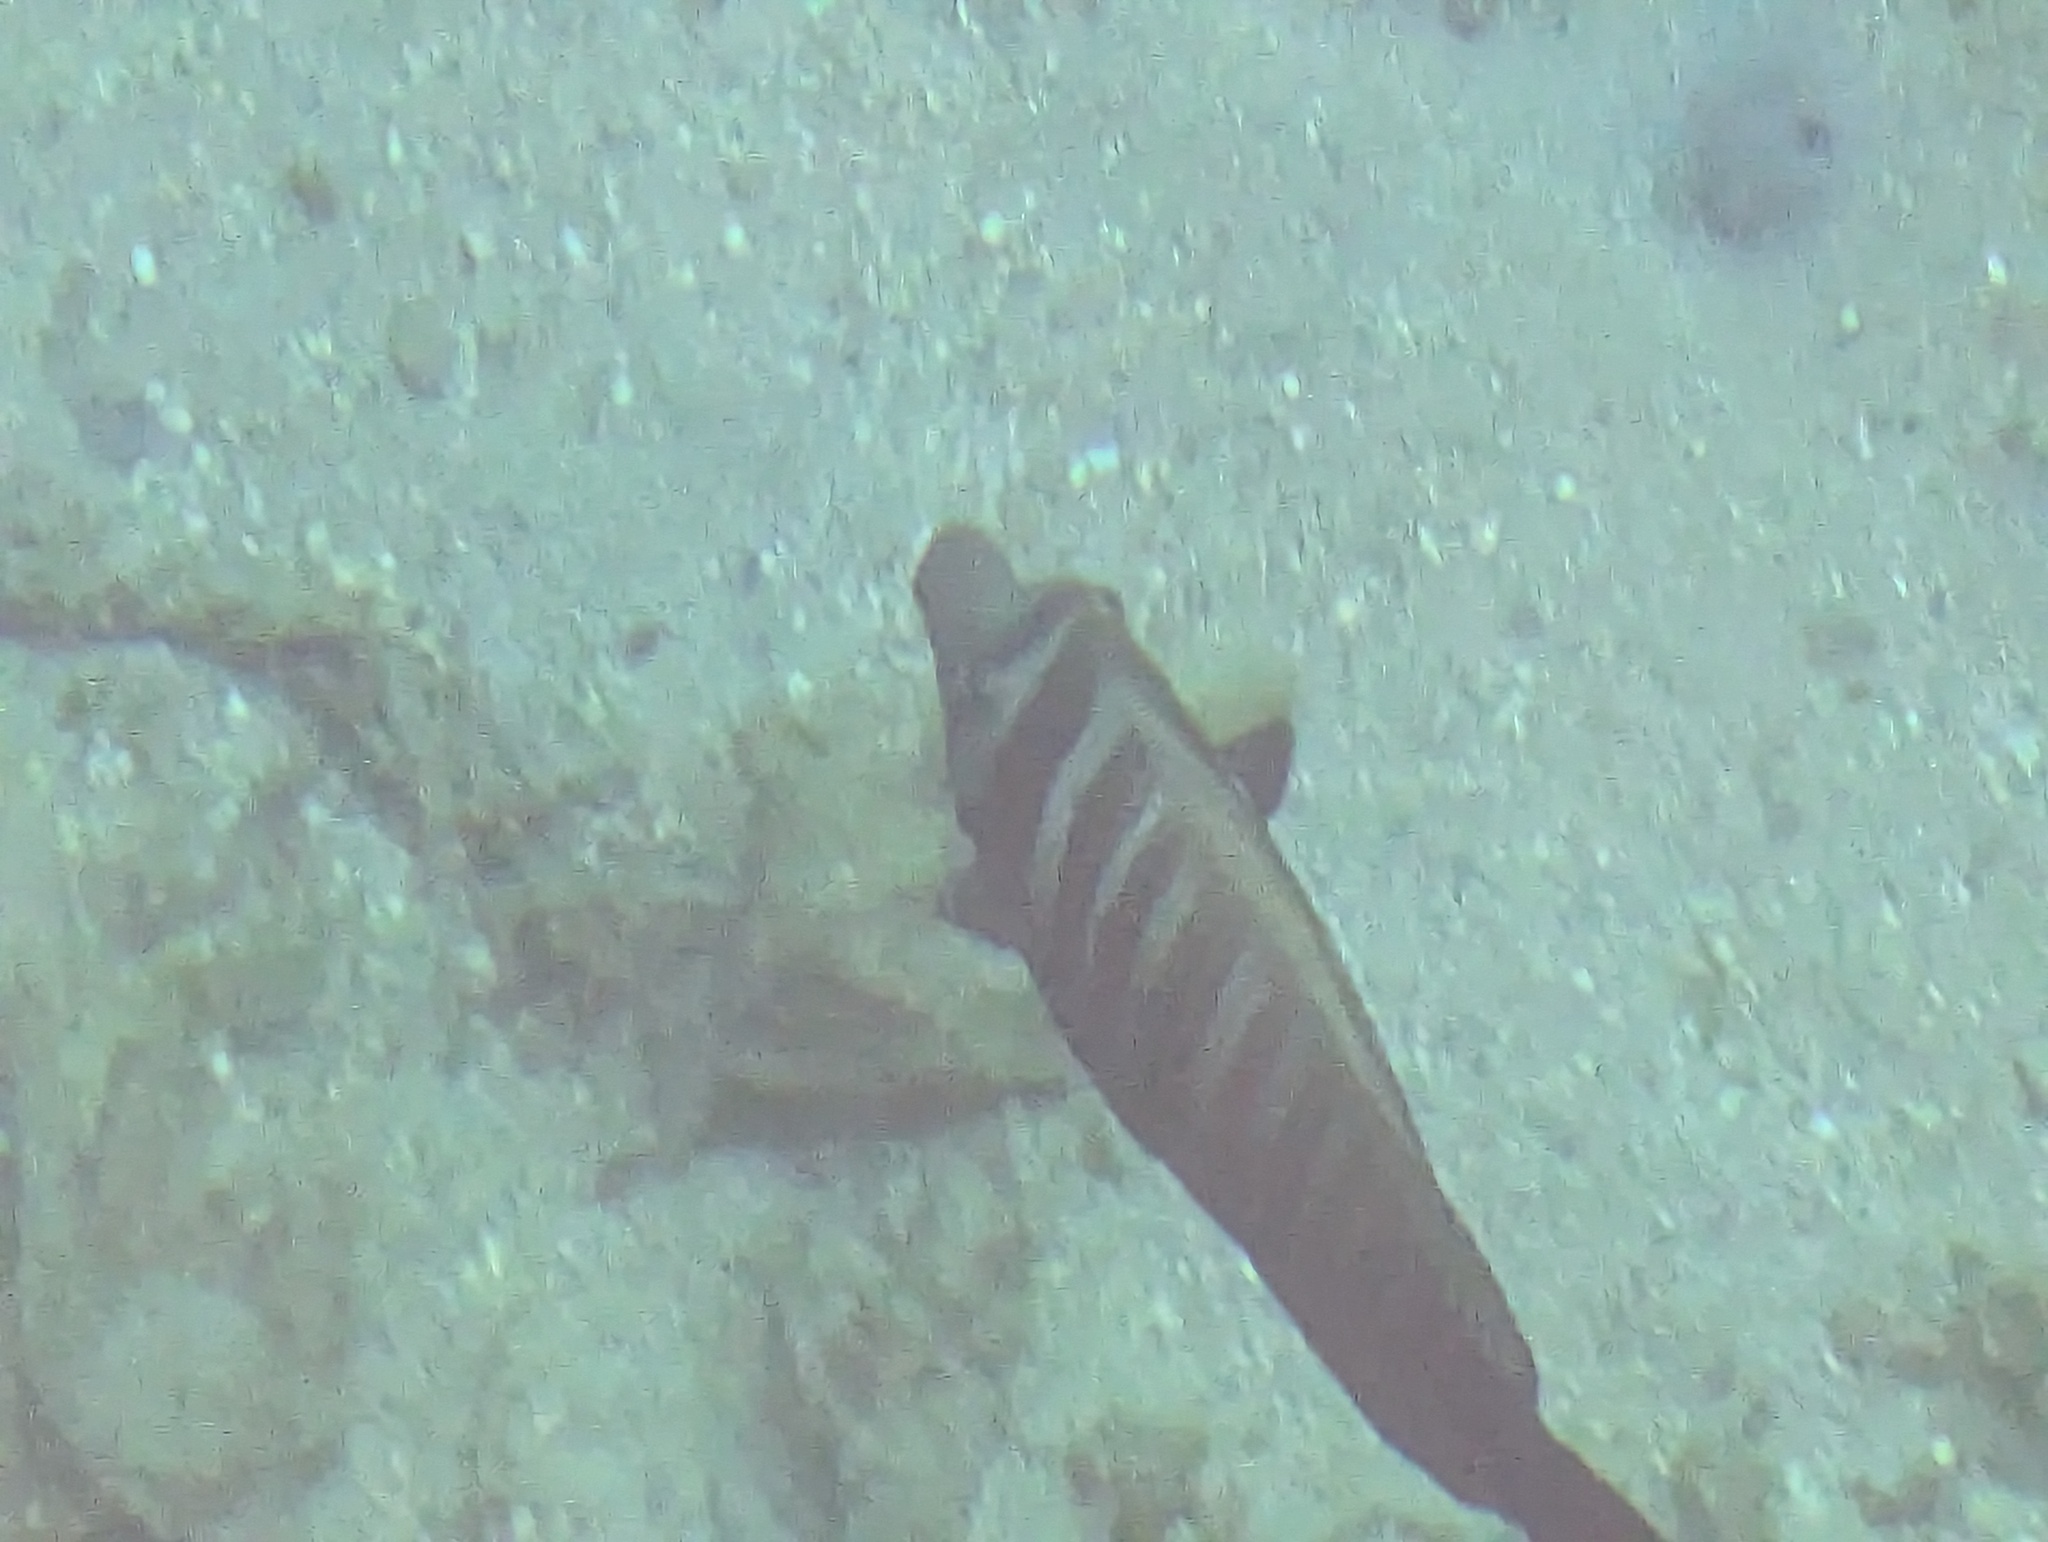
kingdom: Animalia
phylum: Chordata
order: Perciformes
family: Acanthuridae
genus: Zebrasoma
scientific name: Zebrasoma desjardinii
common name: Desjardin's sailfin tang
